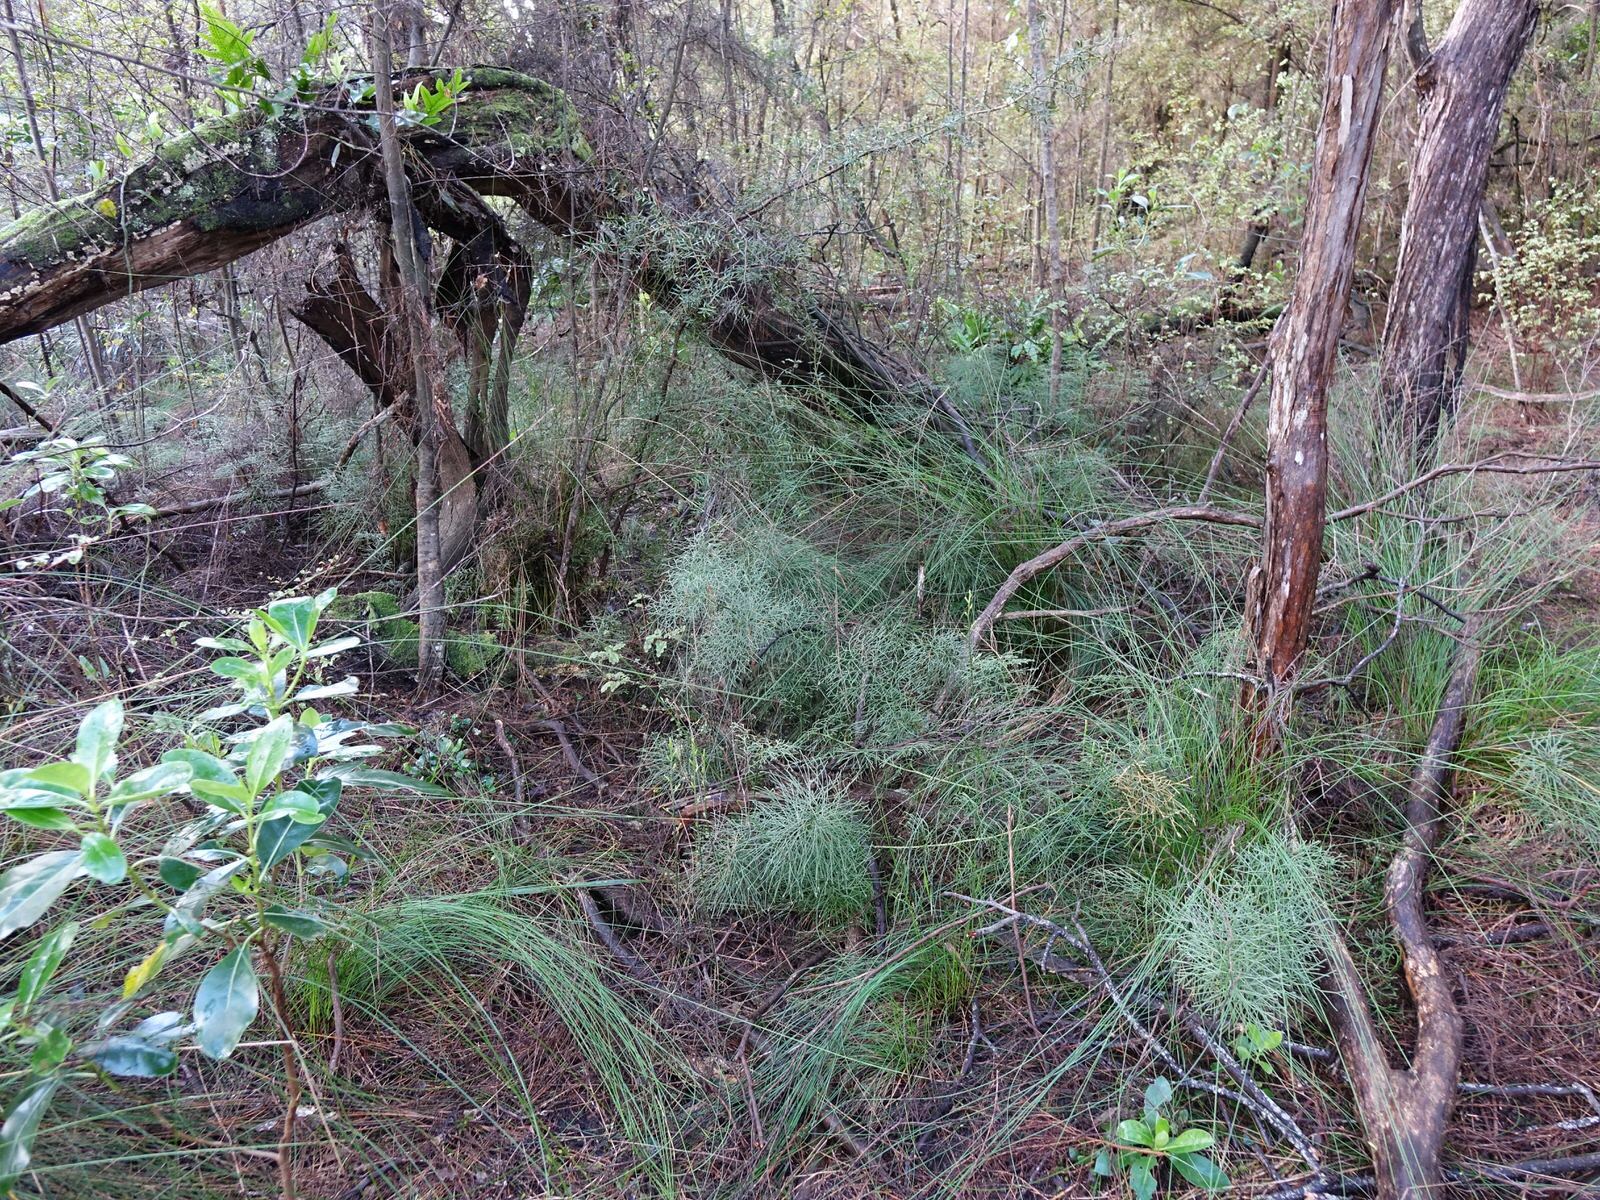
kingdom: Plantae
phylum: Tracheophyta
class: Lycopodiopsida
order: Lycopodiales
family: Lycopodiaceae
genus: Pseudolycopodium
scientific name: Pseudolycopodium densum
